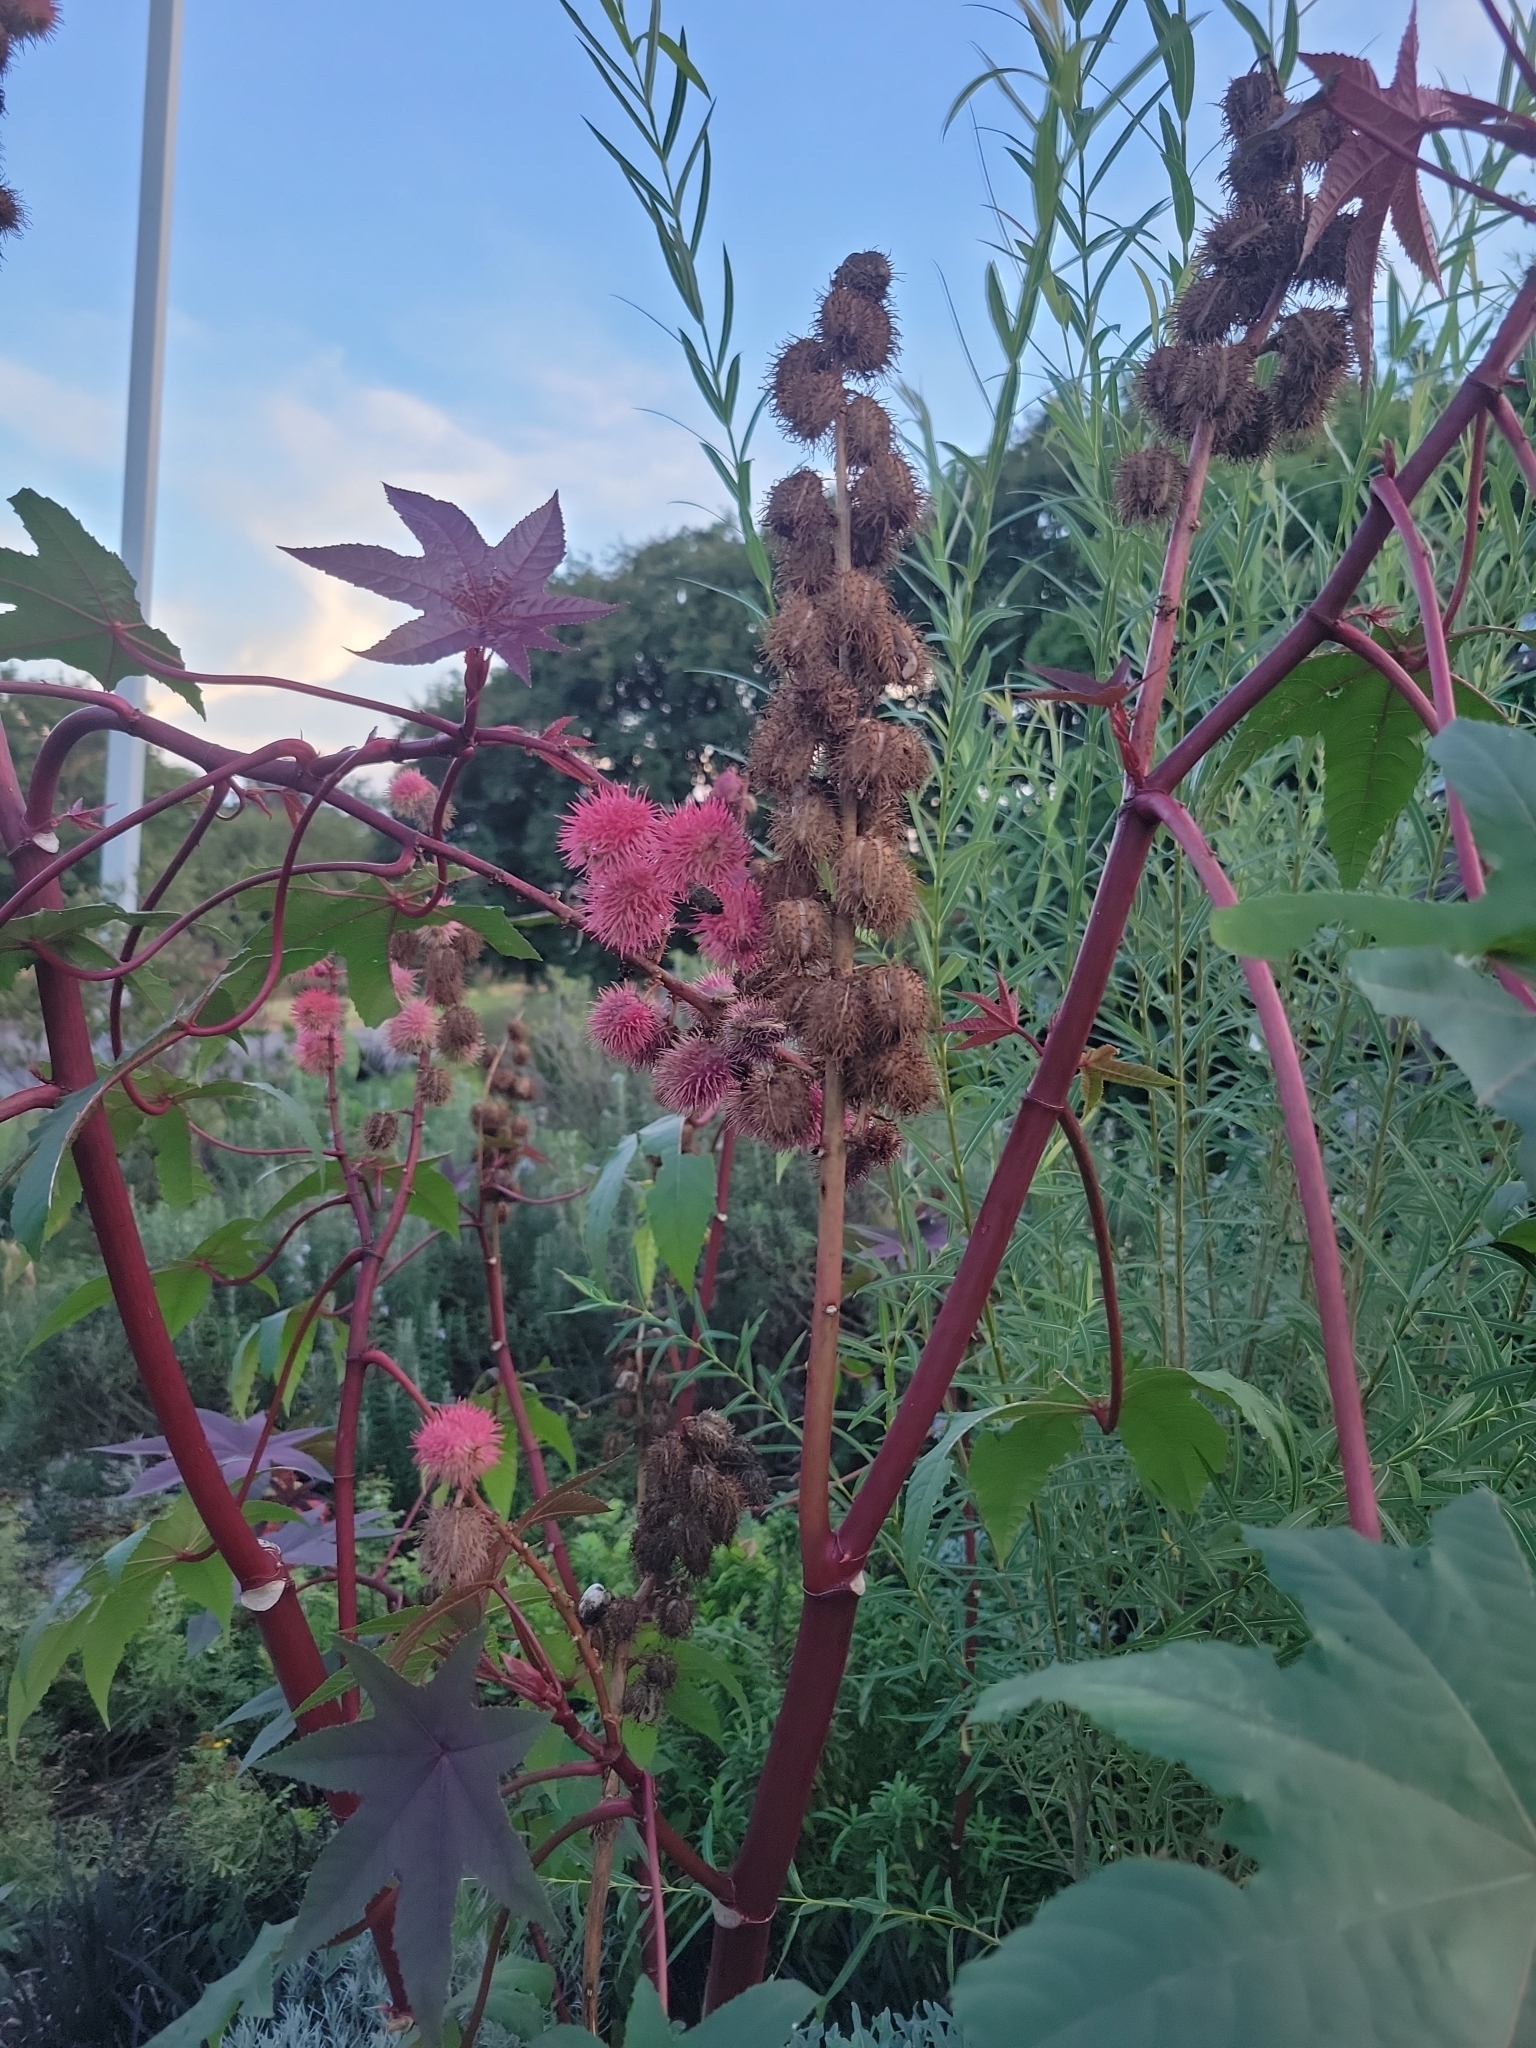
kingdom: Plantae
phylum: Tracheophyta
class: Magnoliopsida
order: Malpighiales
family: Euphorbiaceae
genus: Ricinus
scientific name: Ricinus communis
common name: Castor-oil-plant
